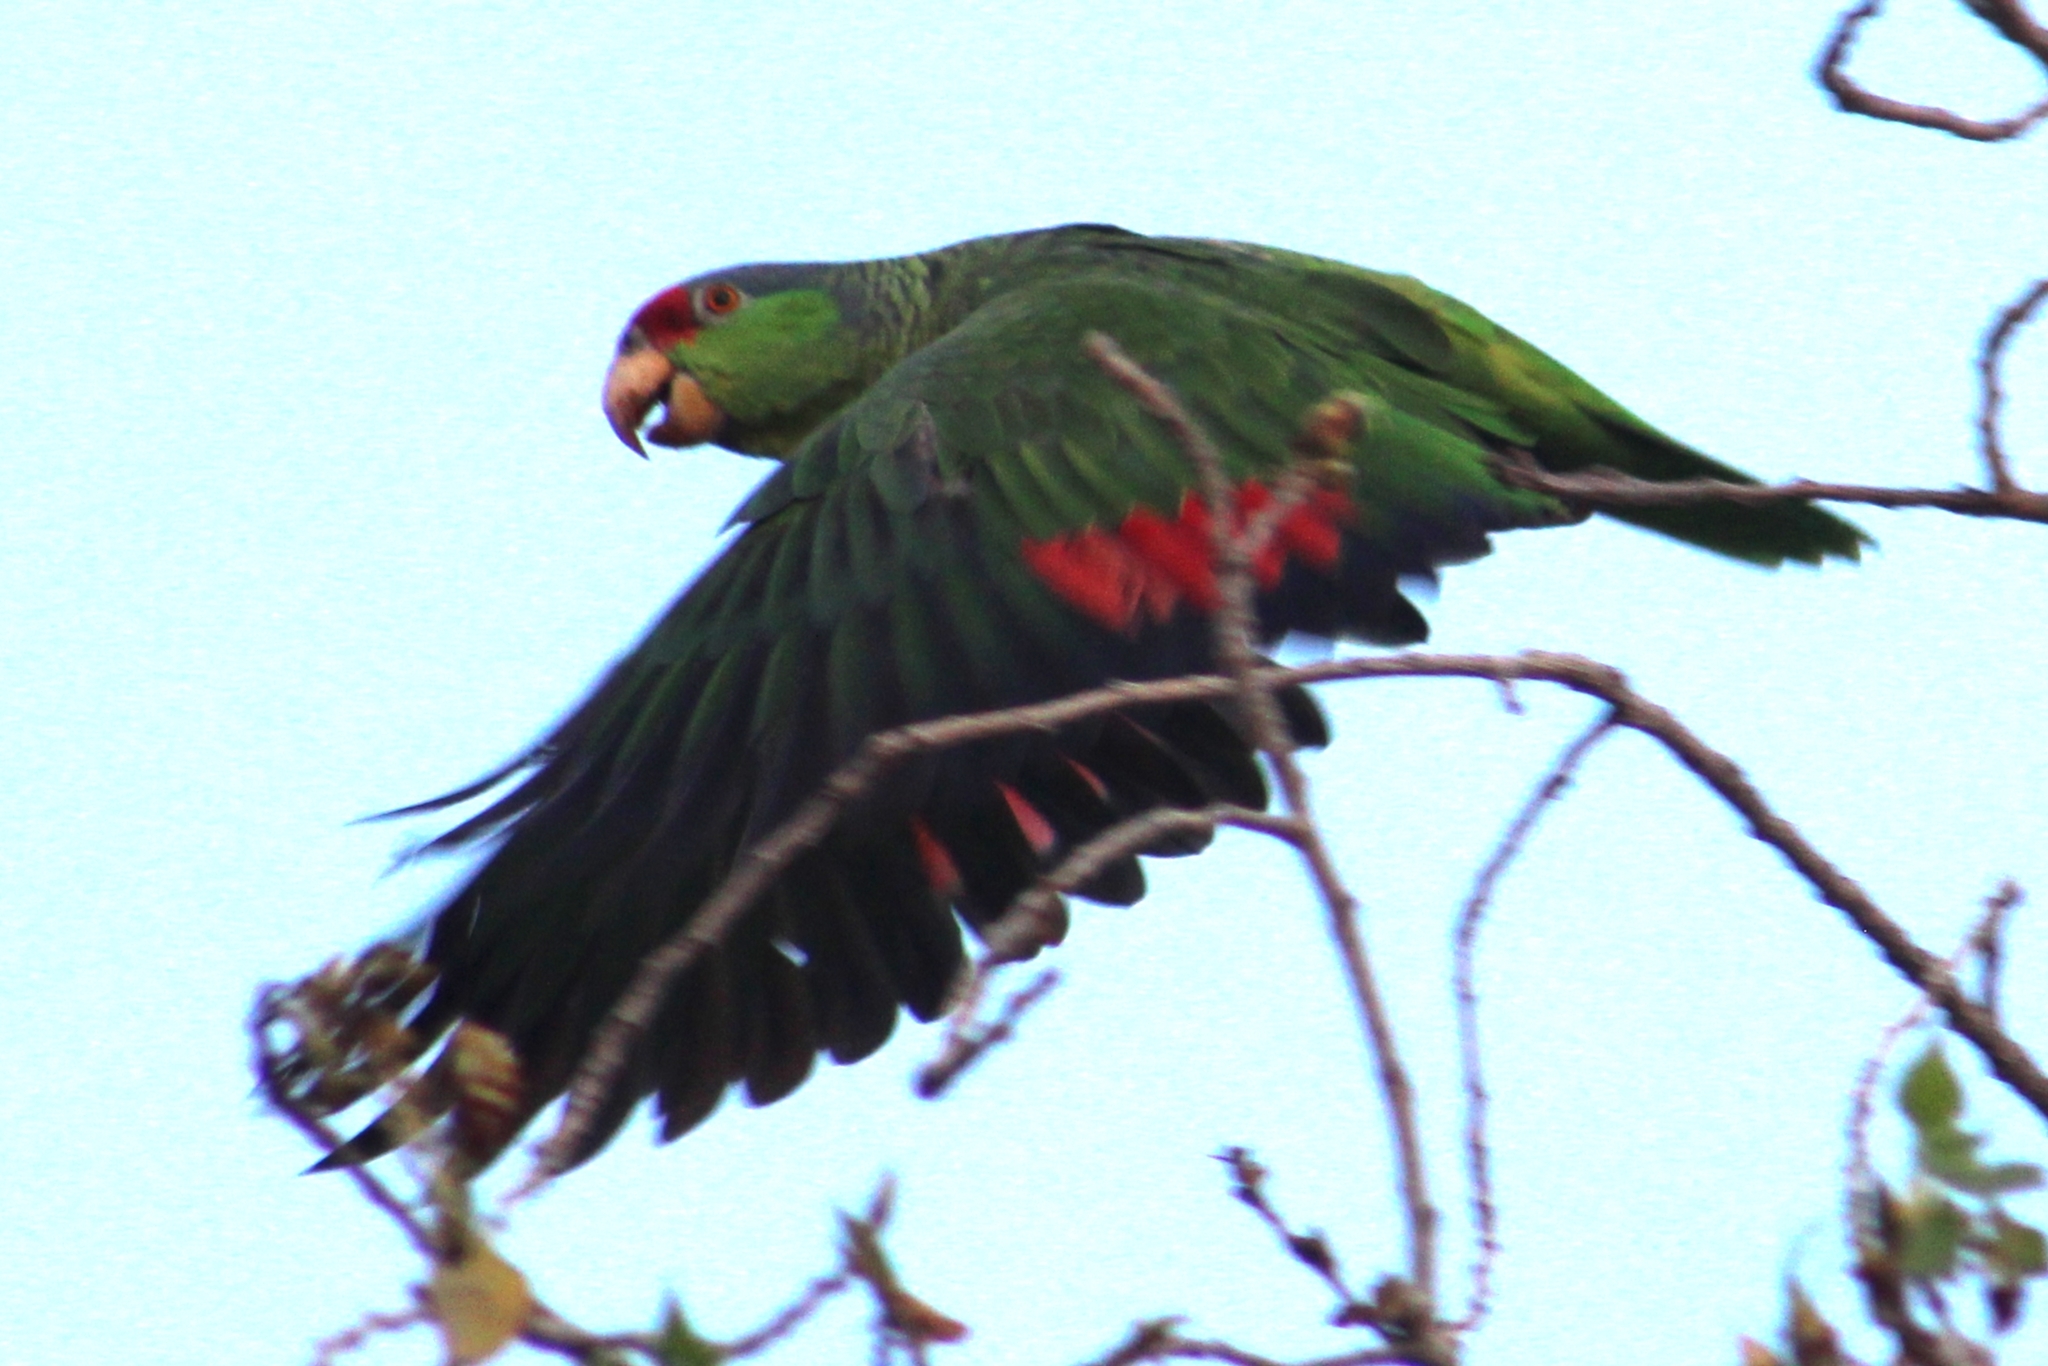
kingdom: Animalia
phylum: Chordata
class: Aves
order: Psittaciformes
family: Psittacidae
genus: Amazona
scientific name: Amazona viridigenalis
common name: Red-crowned amazon
